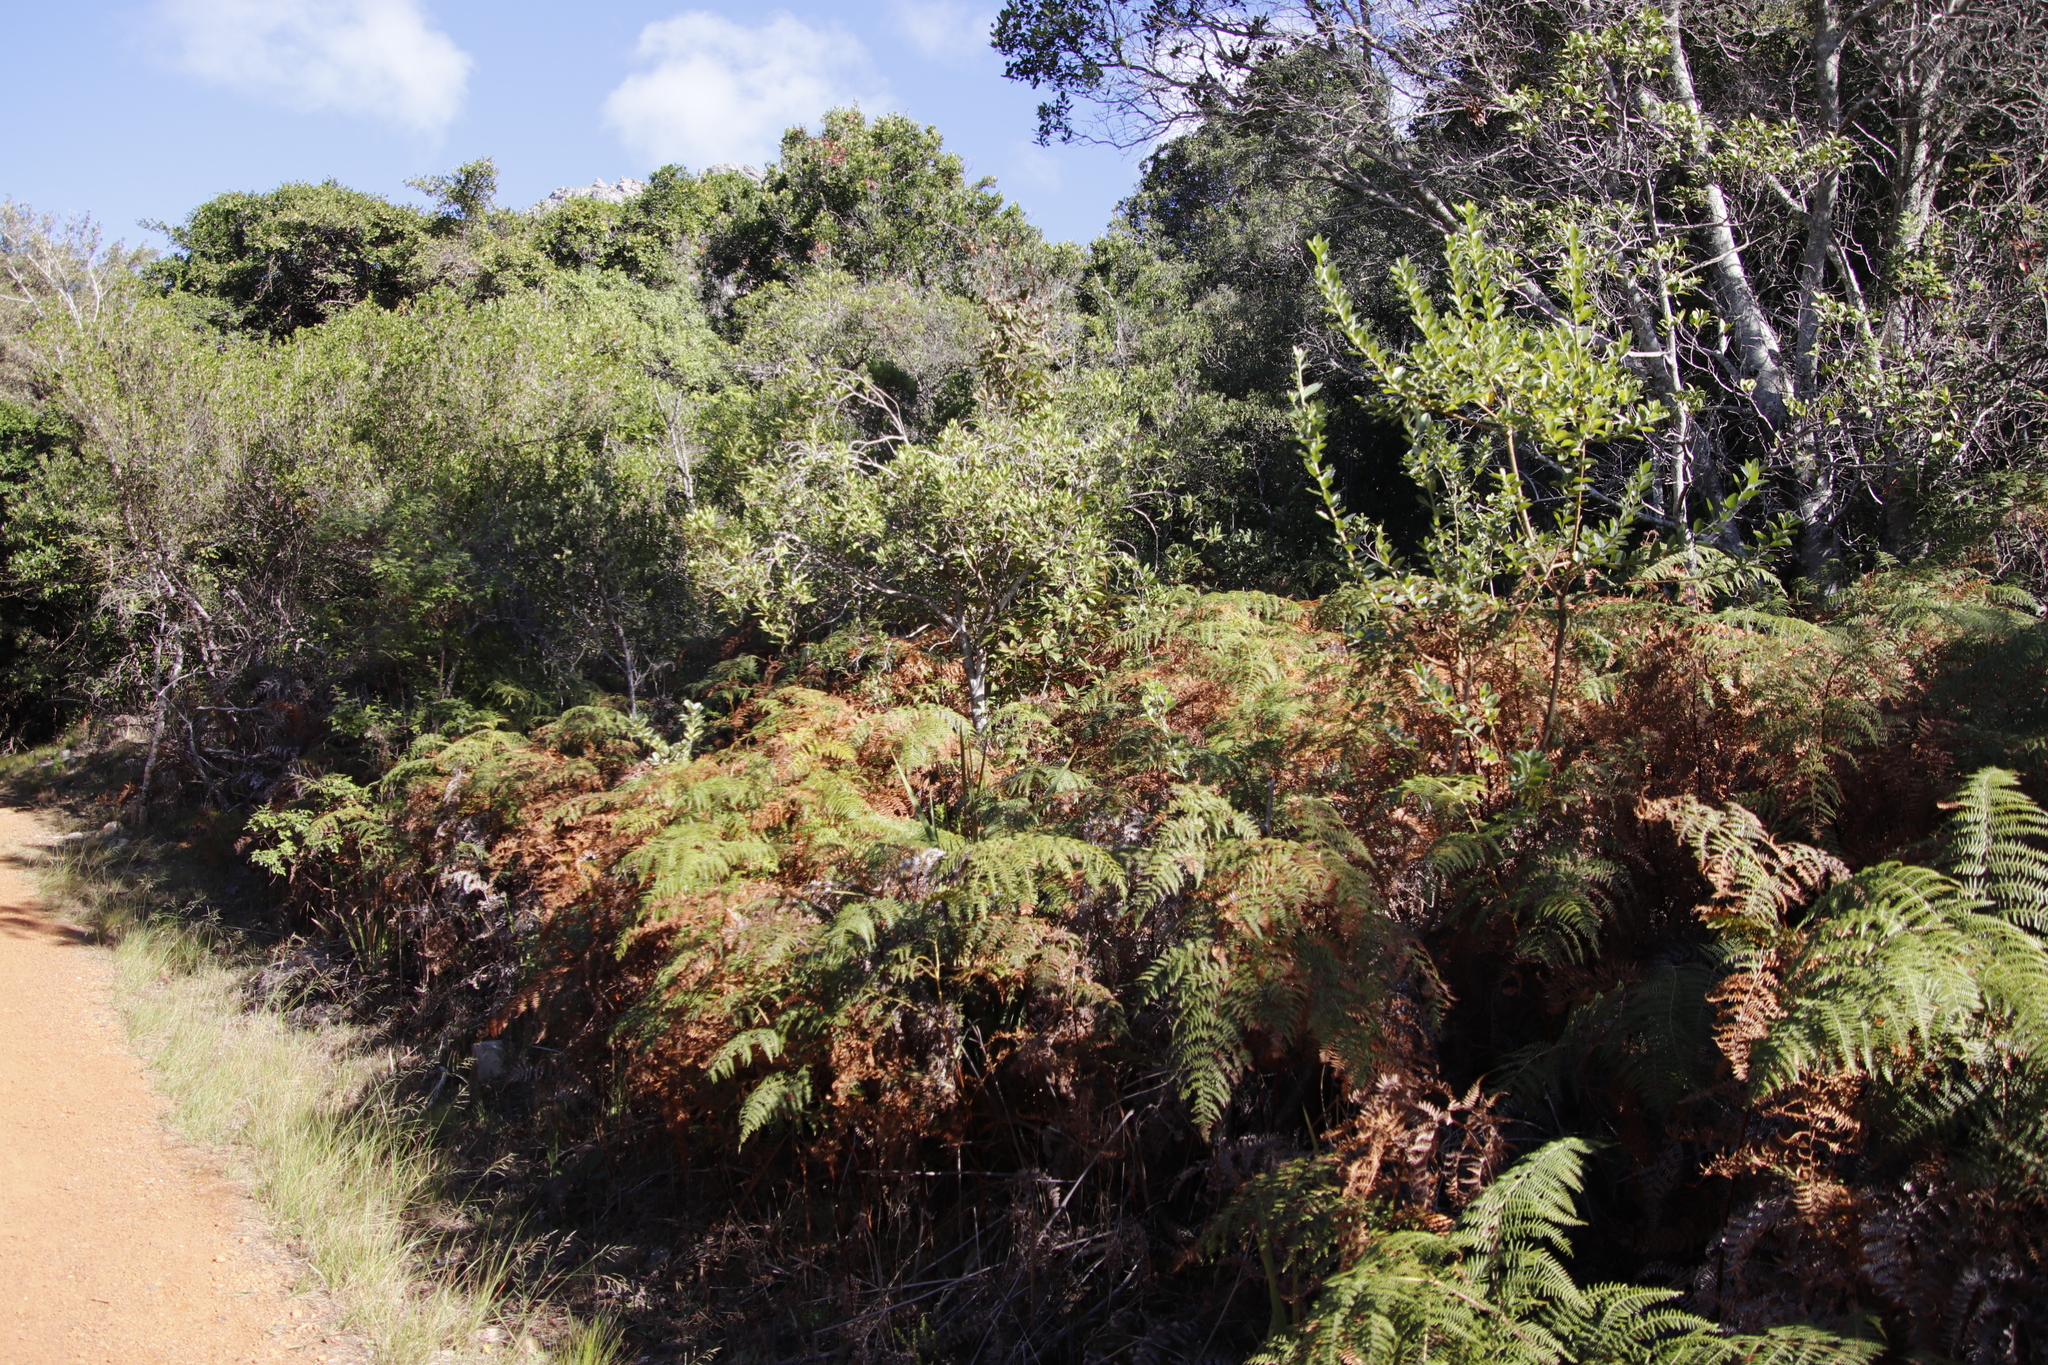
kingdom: Plantae
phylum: Tracheophyta
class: Polypodiopsida
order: Polypodiales
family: Dennstaedtiaceae
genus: Pteridium
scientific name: Pteridium aquilinum
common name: Bracken
